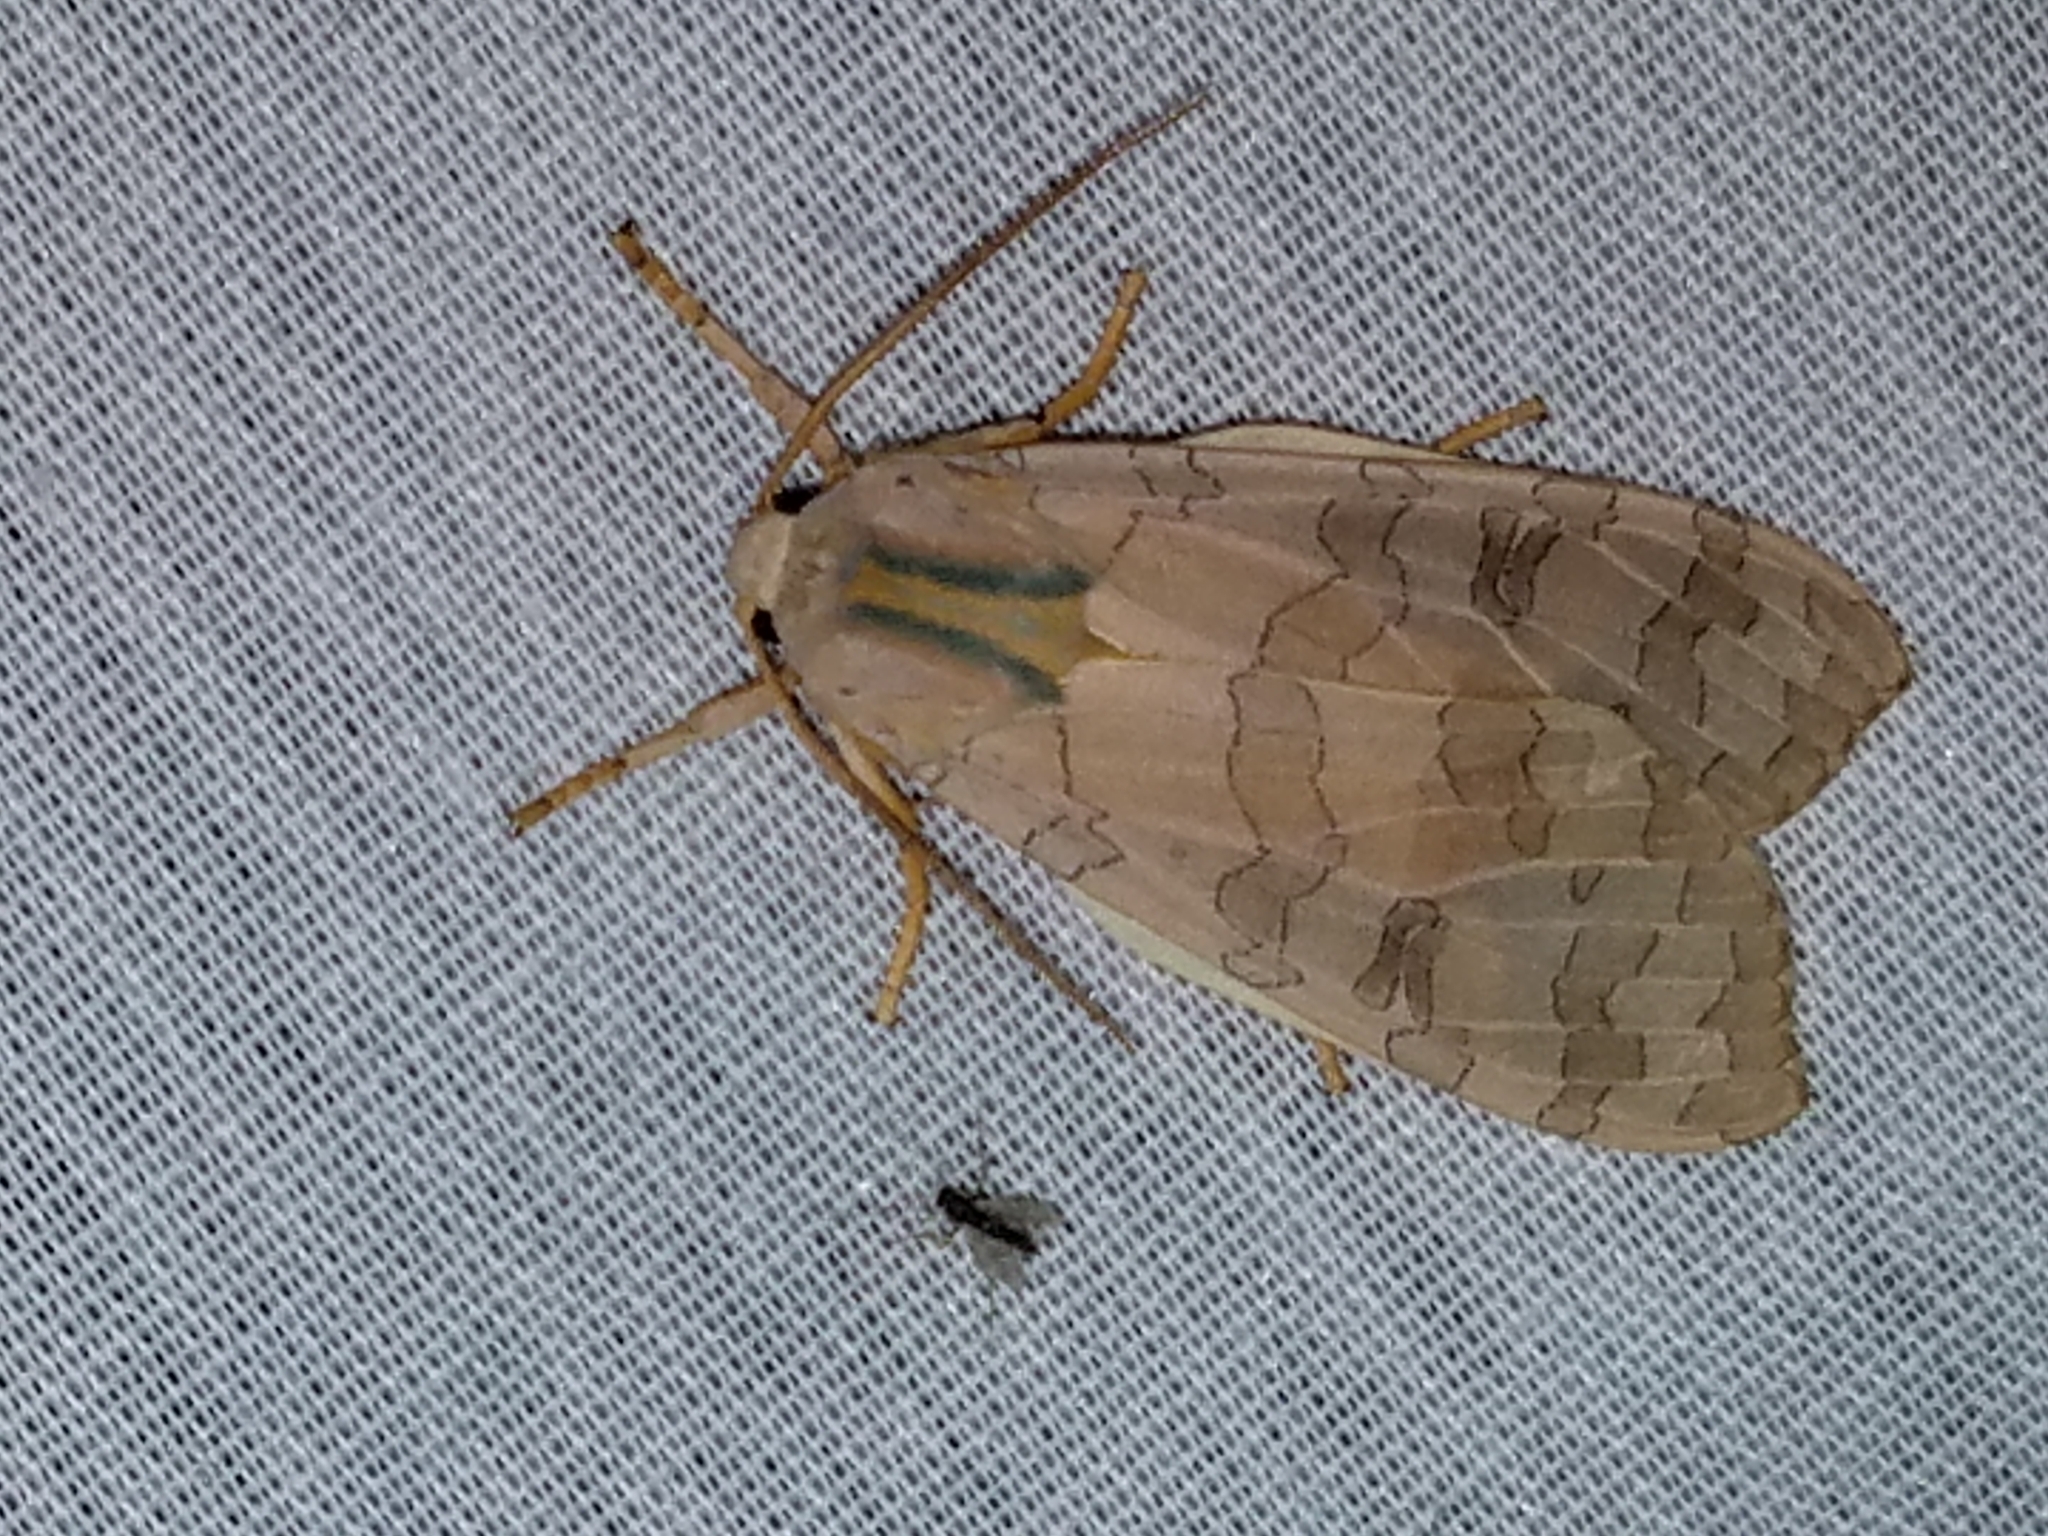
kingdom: Animalia
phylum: Arthropoda
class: Insecta
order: Lepidoptera
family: Erebidae
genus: Halysidota
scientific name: Halysidota
